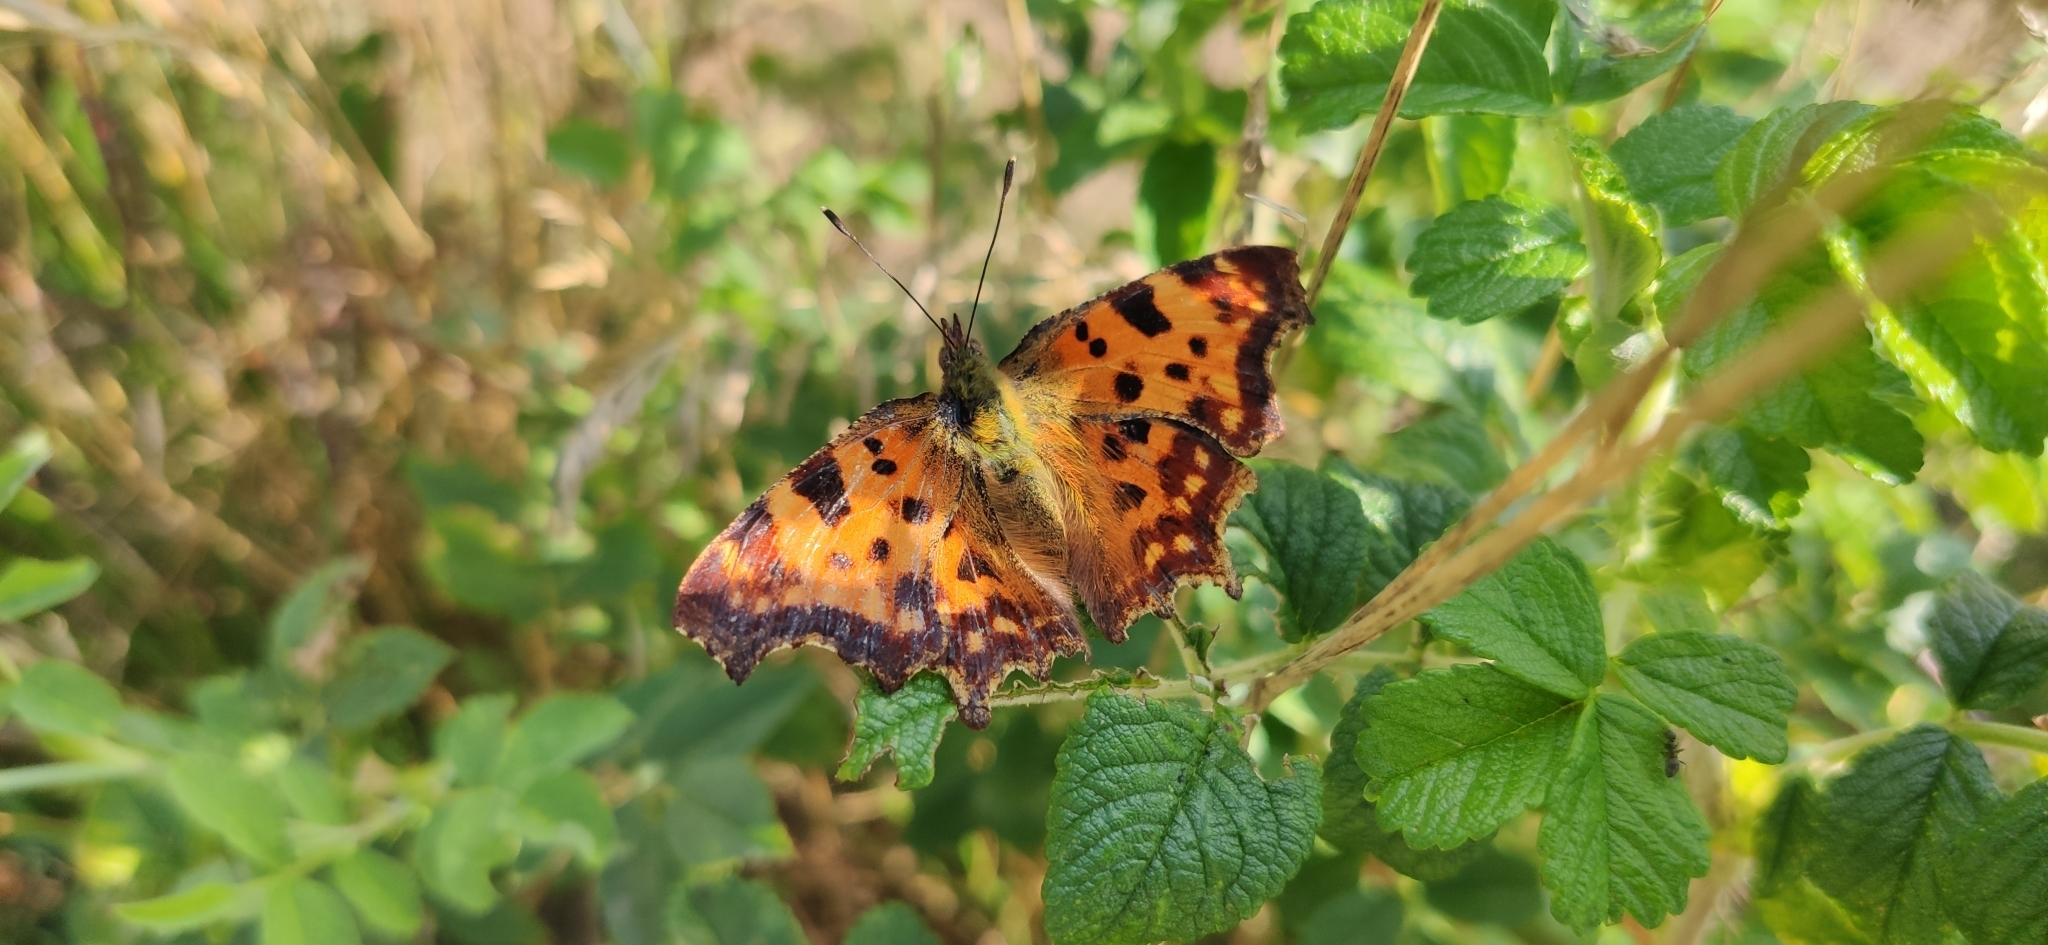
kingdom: Animalia
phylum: Arthropoda
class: Insecta
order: Lepidoptera
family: Nymphalidae
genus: Polygonia
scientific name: Polygonia c-album
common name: Comma
